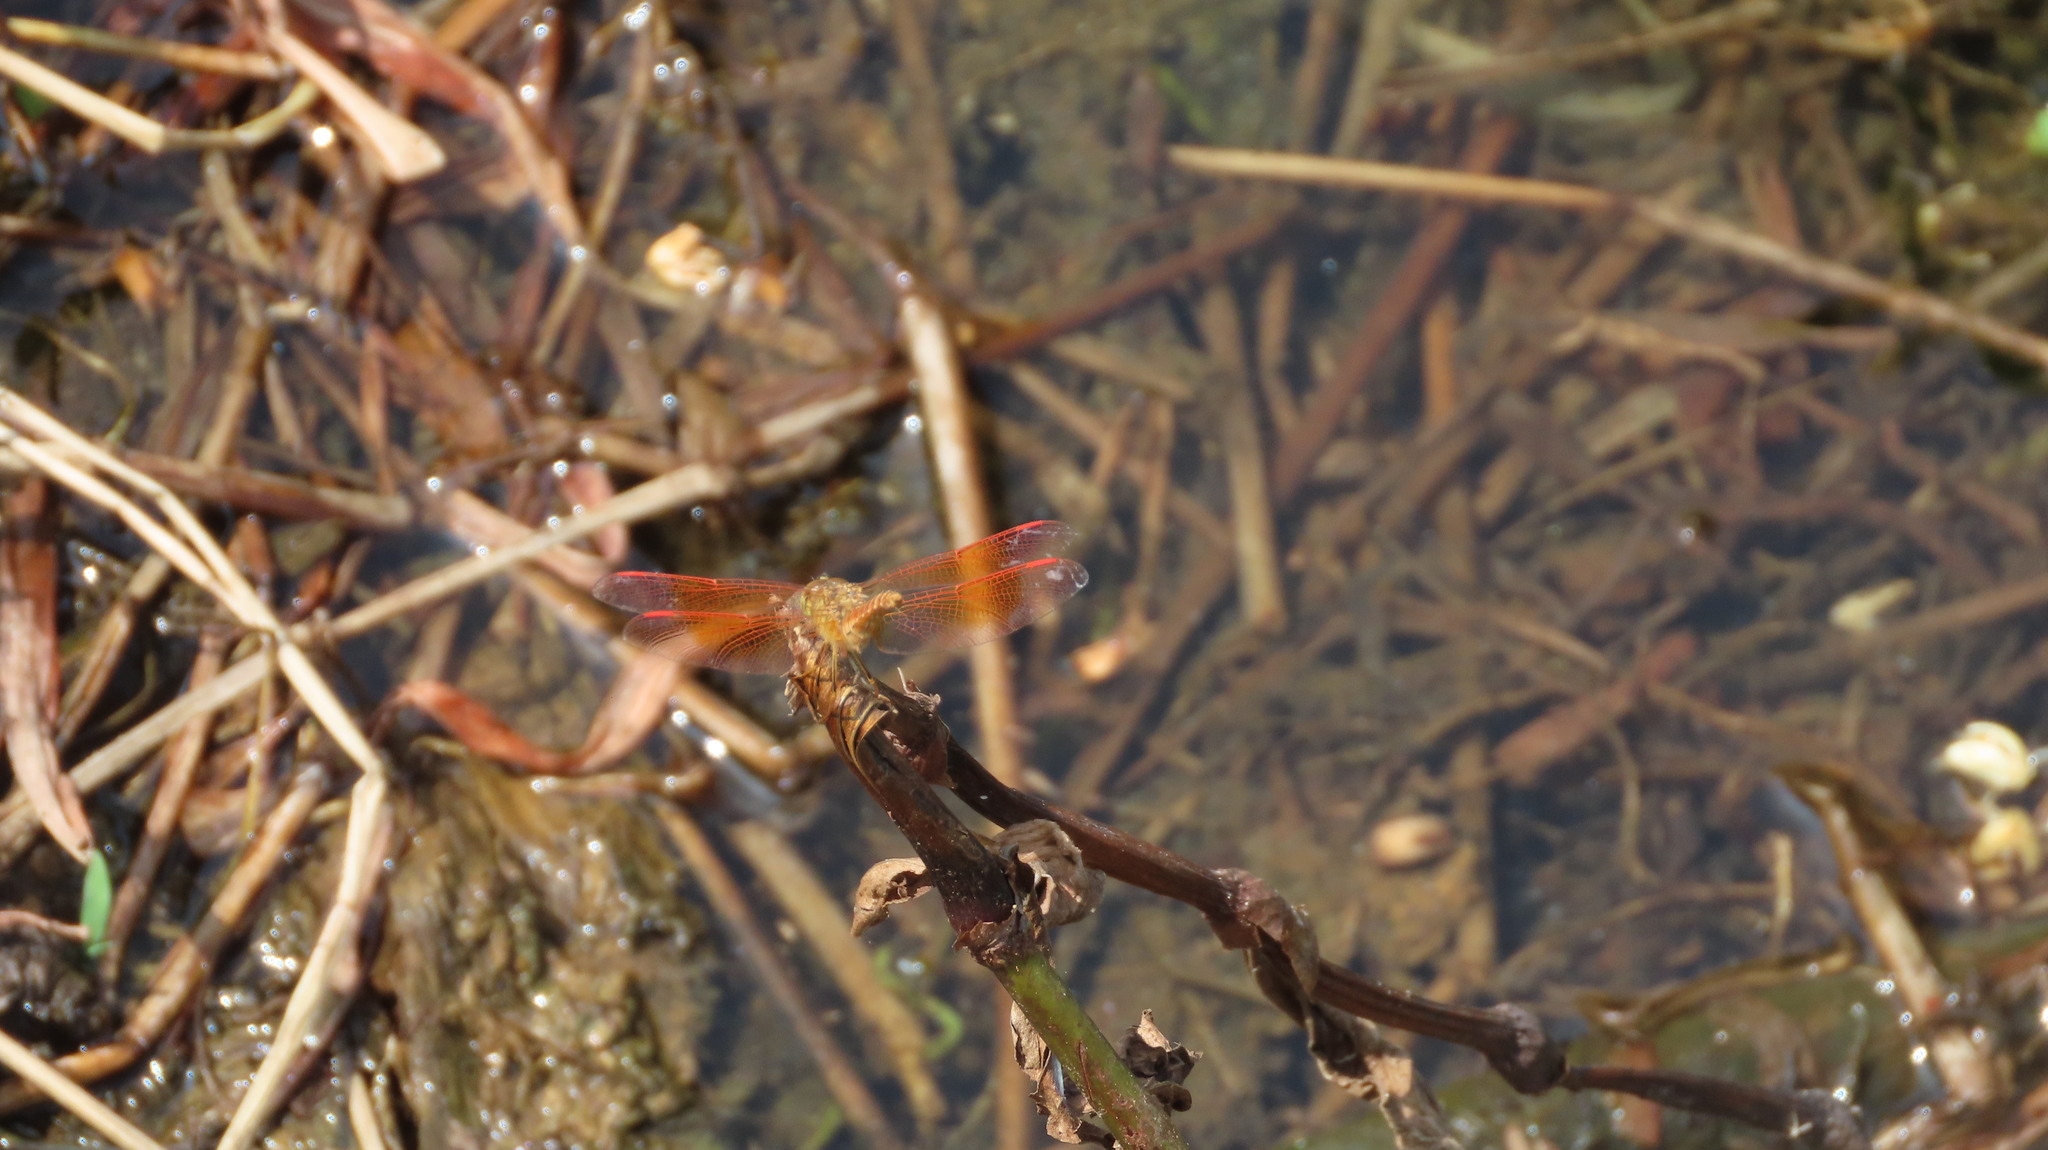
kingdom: Animalia
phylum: Arthropoda
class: Insecta
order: Odonata
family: Libellulidae
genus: Brachythemis
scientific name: Brachythemis contaminata
